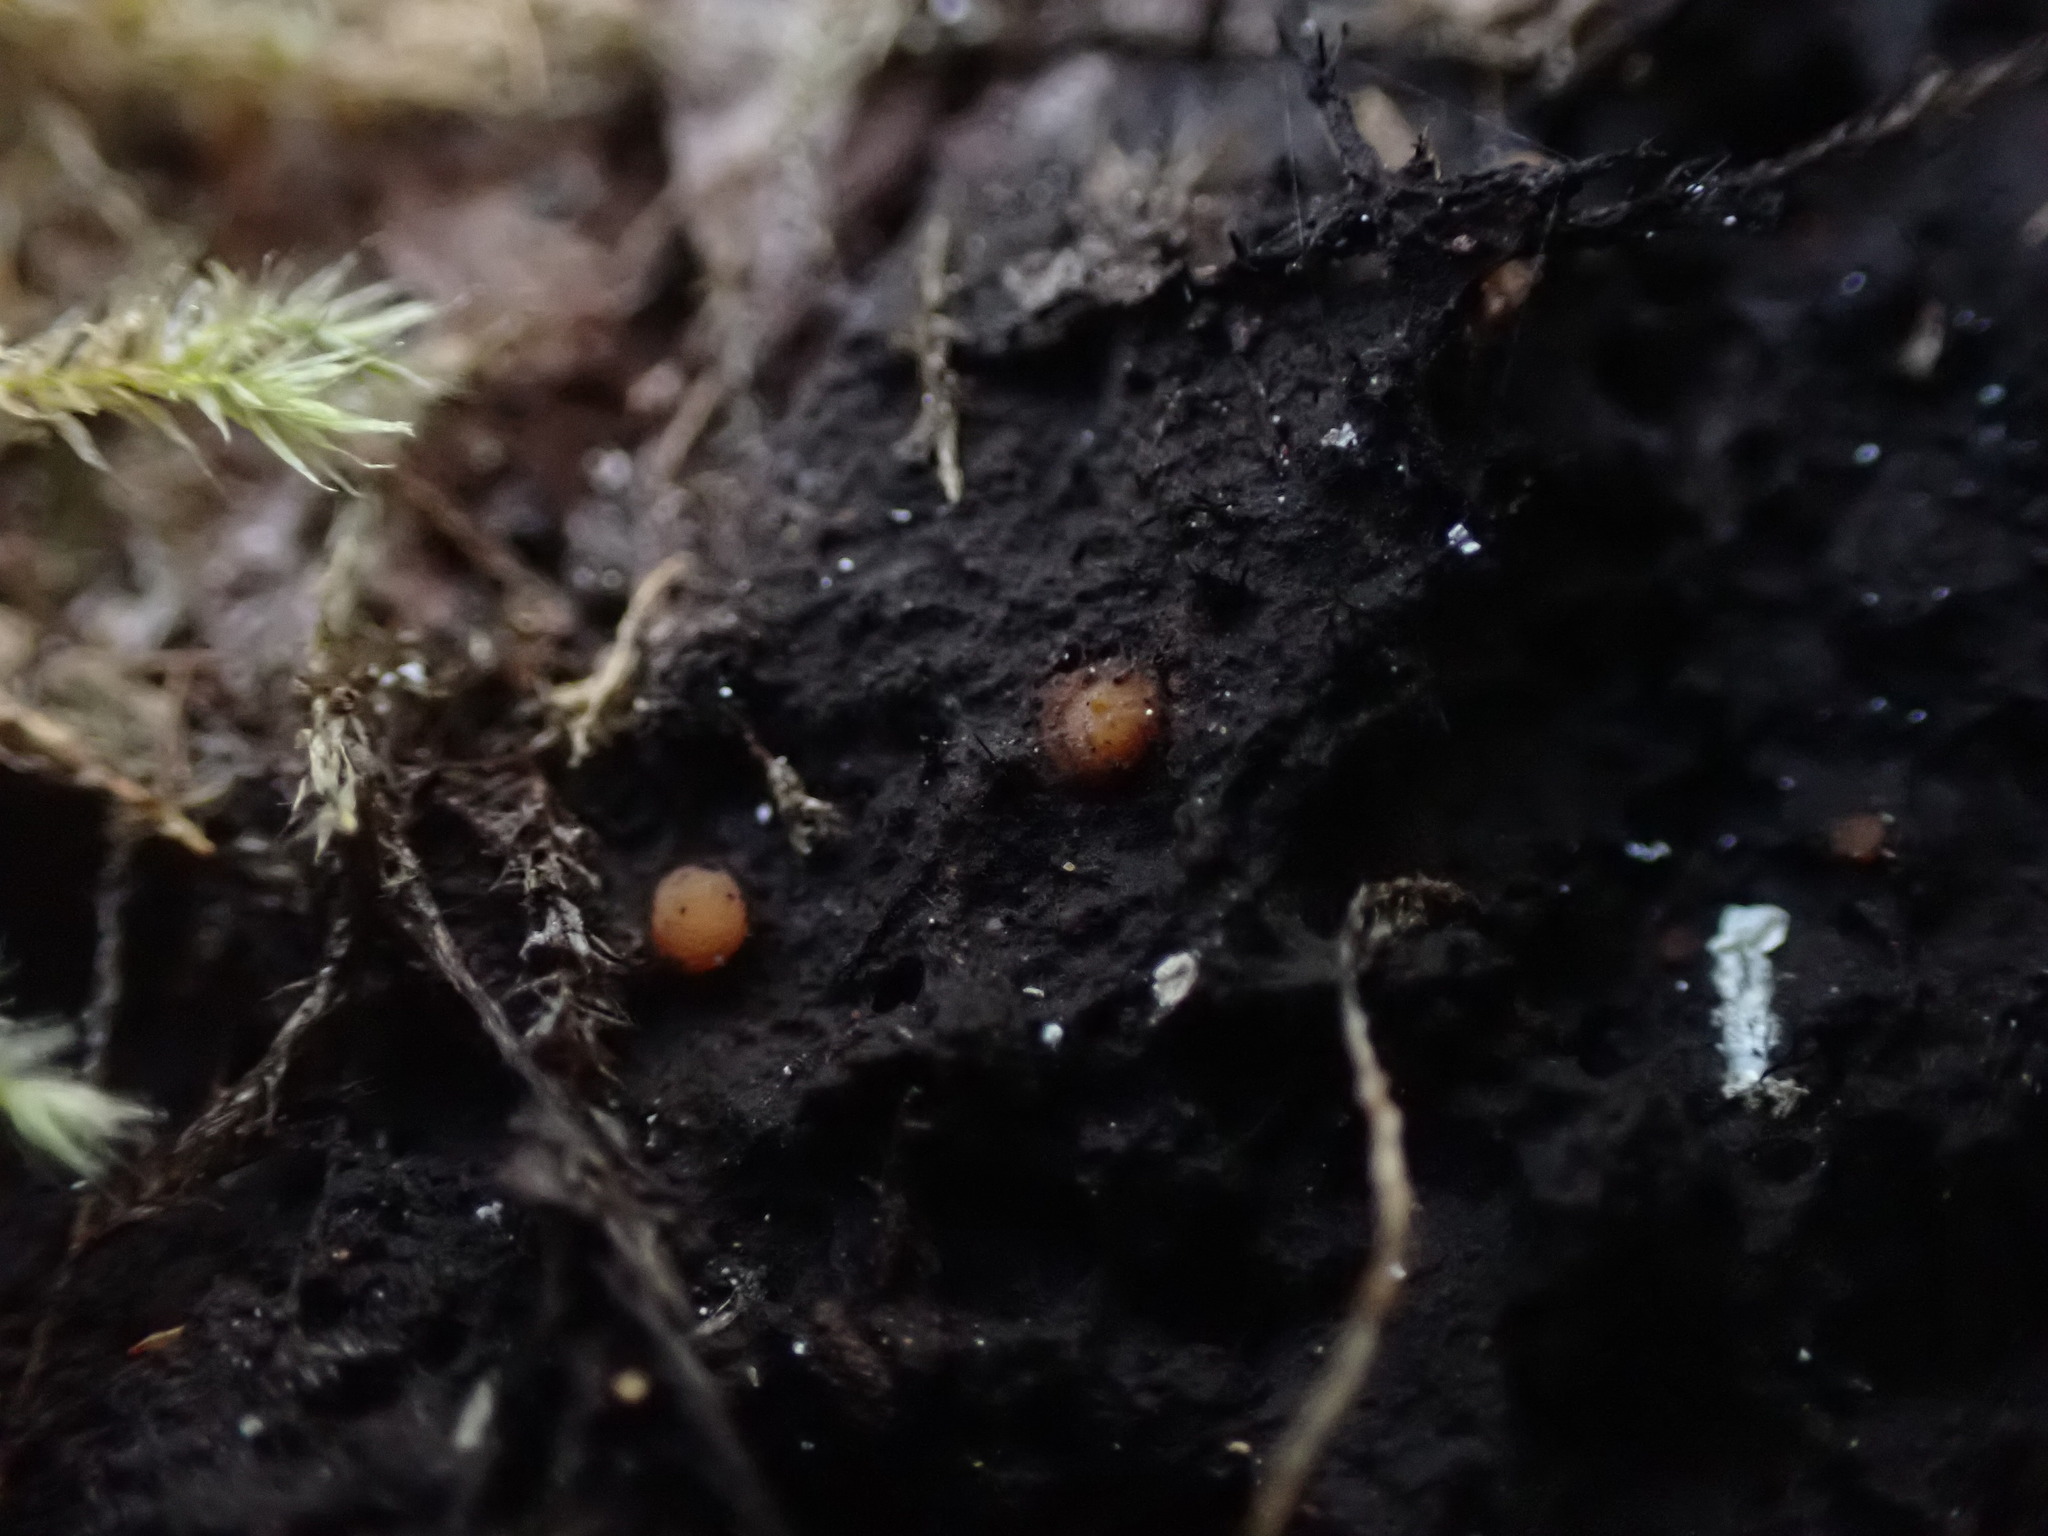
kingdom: Fungi
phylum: Ascomycota
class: Sareomycetes
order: Sareales
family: Sareaceae
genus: Sarea
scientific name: Sarea resinae
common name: Sarea lichen
